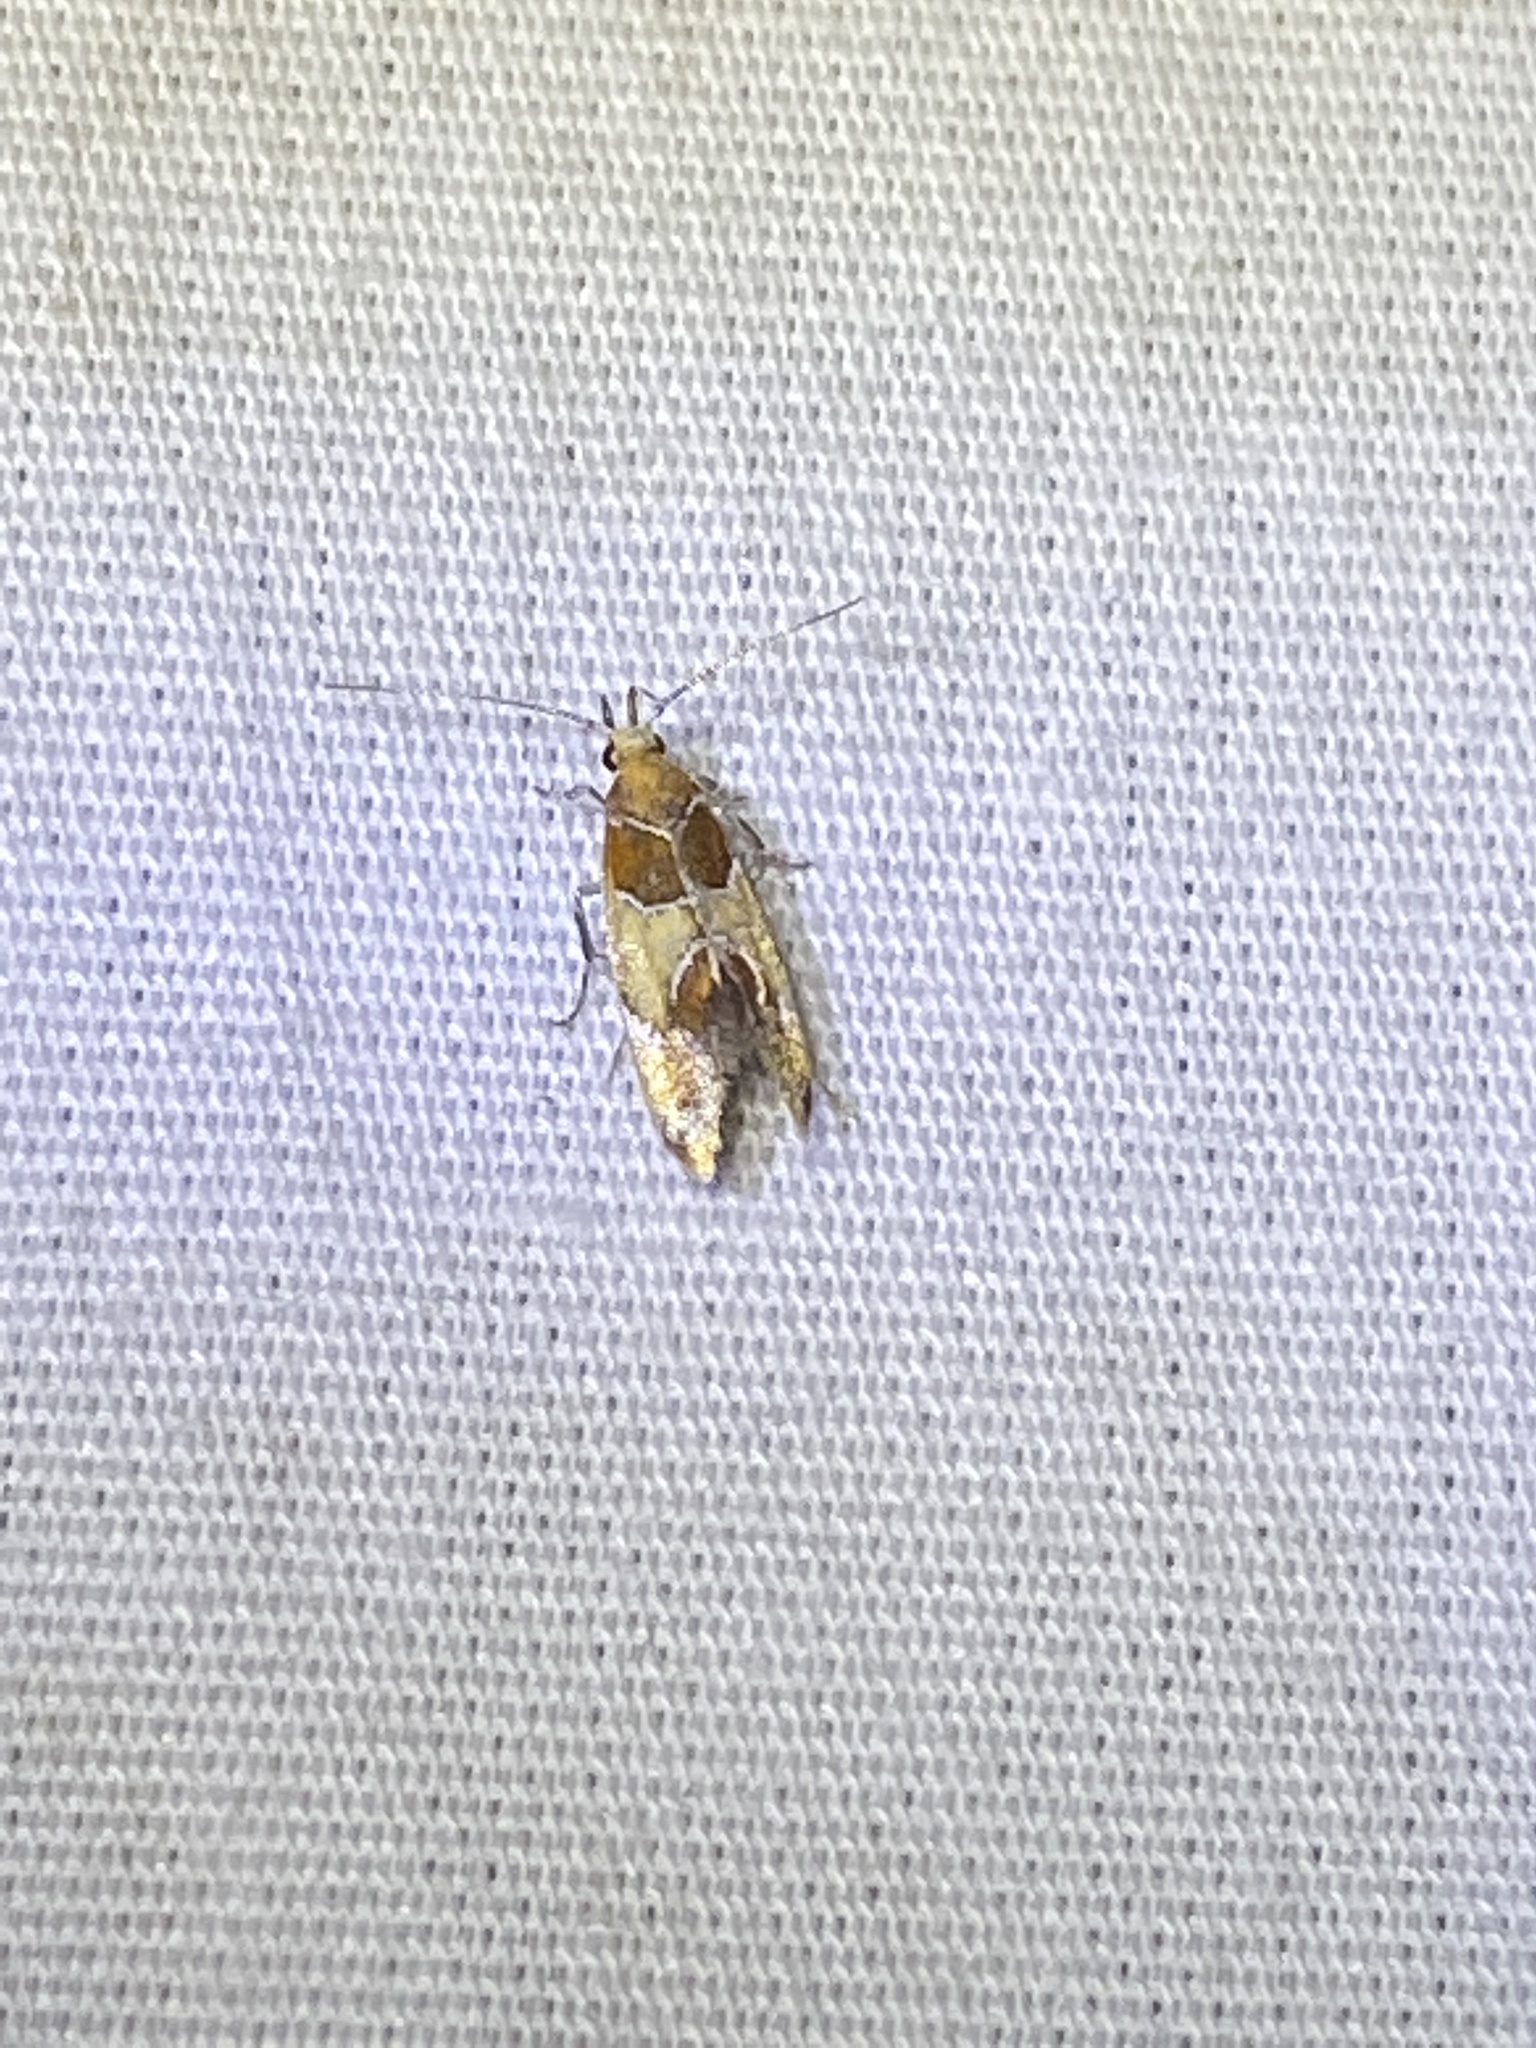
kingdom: Animalia
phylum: Arthropoda
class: Insecta
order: Lepidoptera
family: Oecophoridae
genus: Callima
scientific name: Callima argenticinctella
